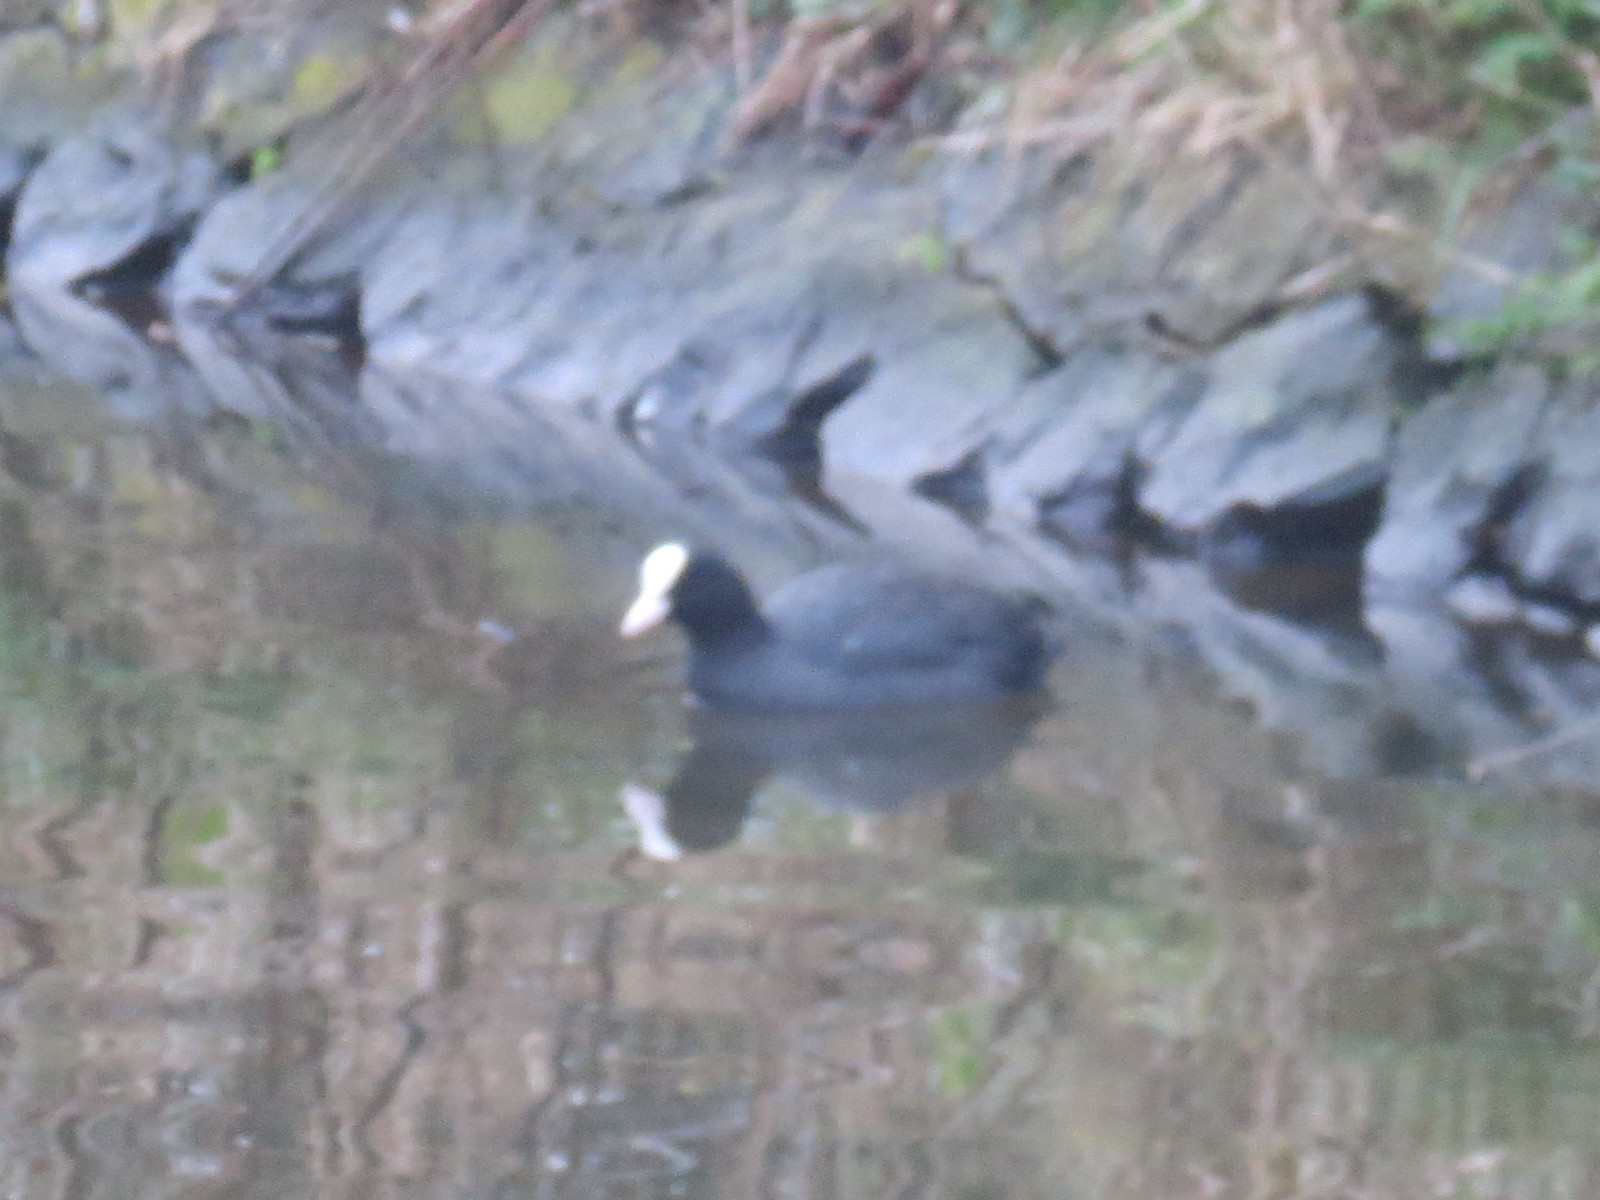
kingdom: Animalia
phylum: Chordata
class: Aves
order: Gruiformes
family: Rallidae
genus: Fulica
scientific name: Fulica atra
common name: Eurasian coot
